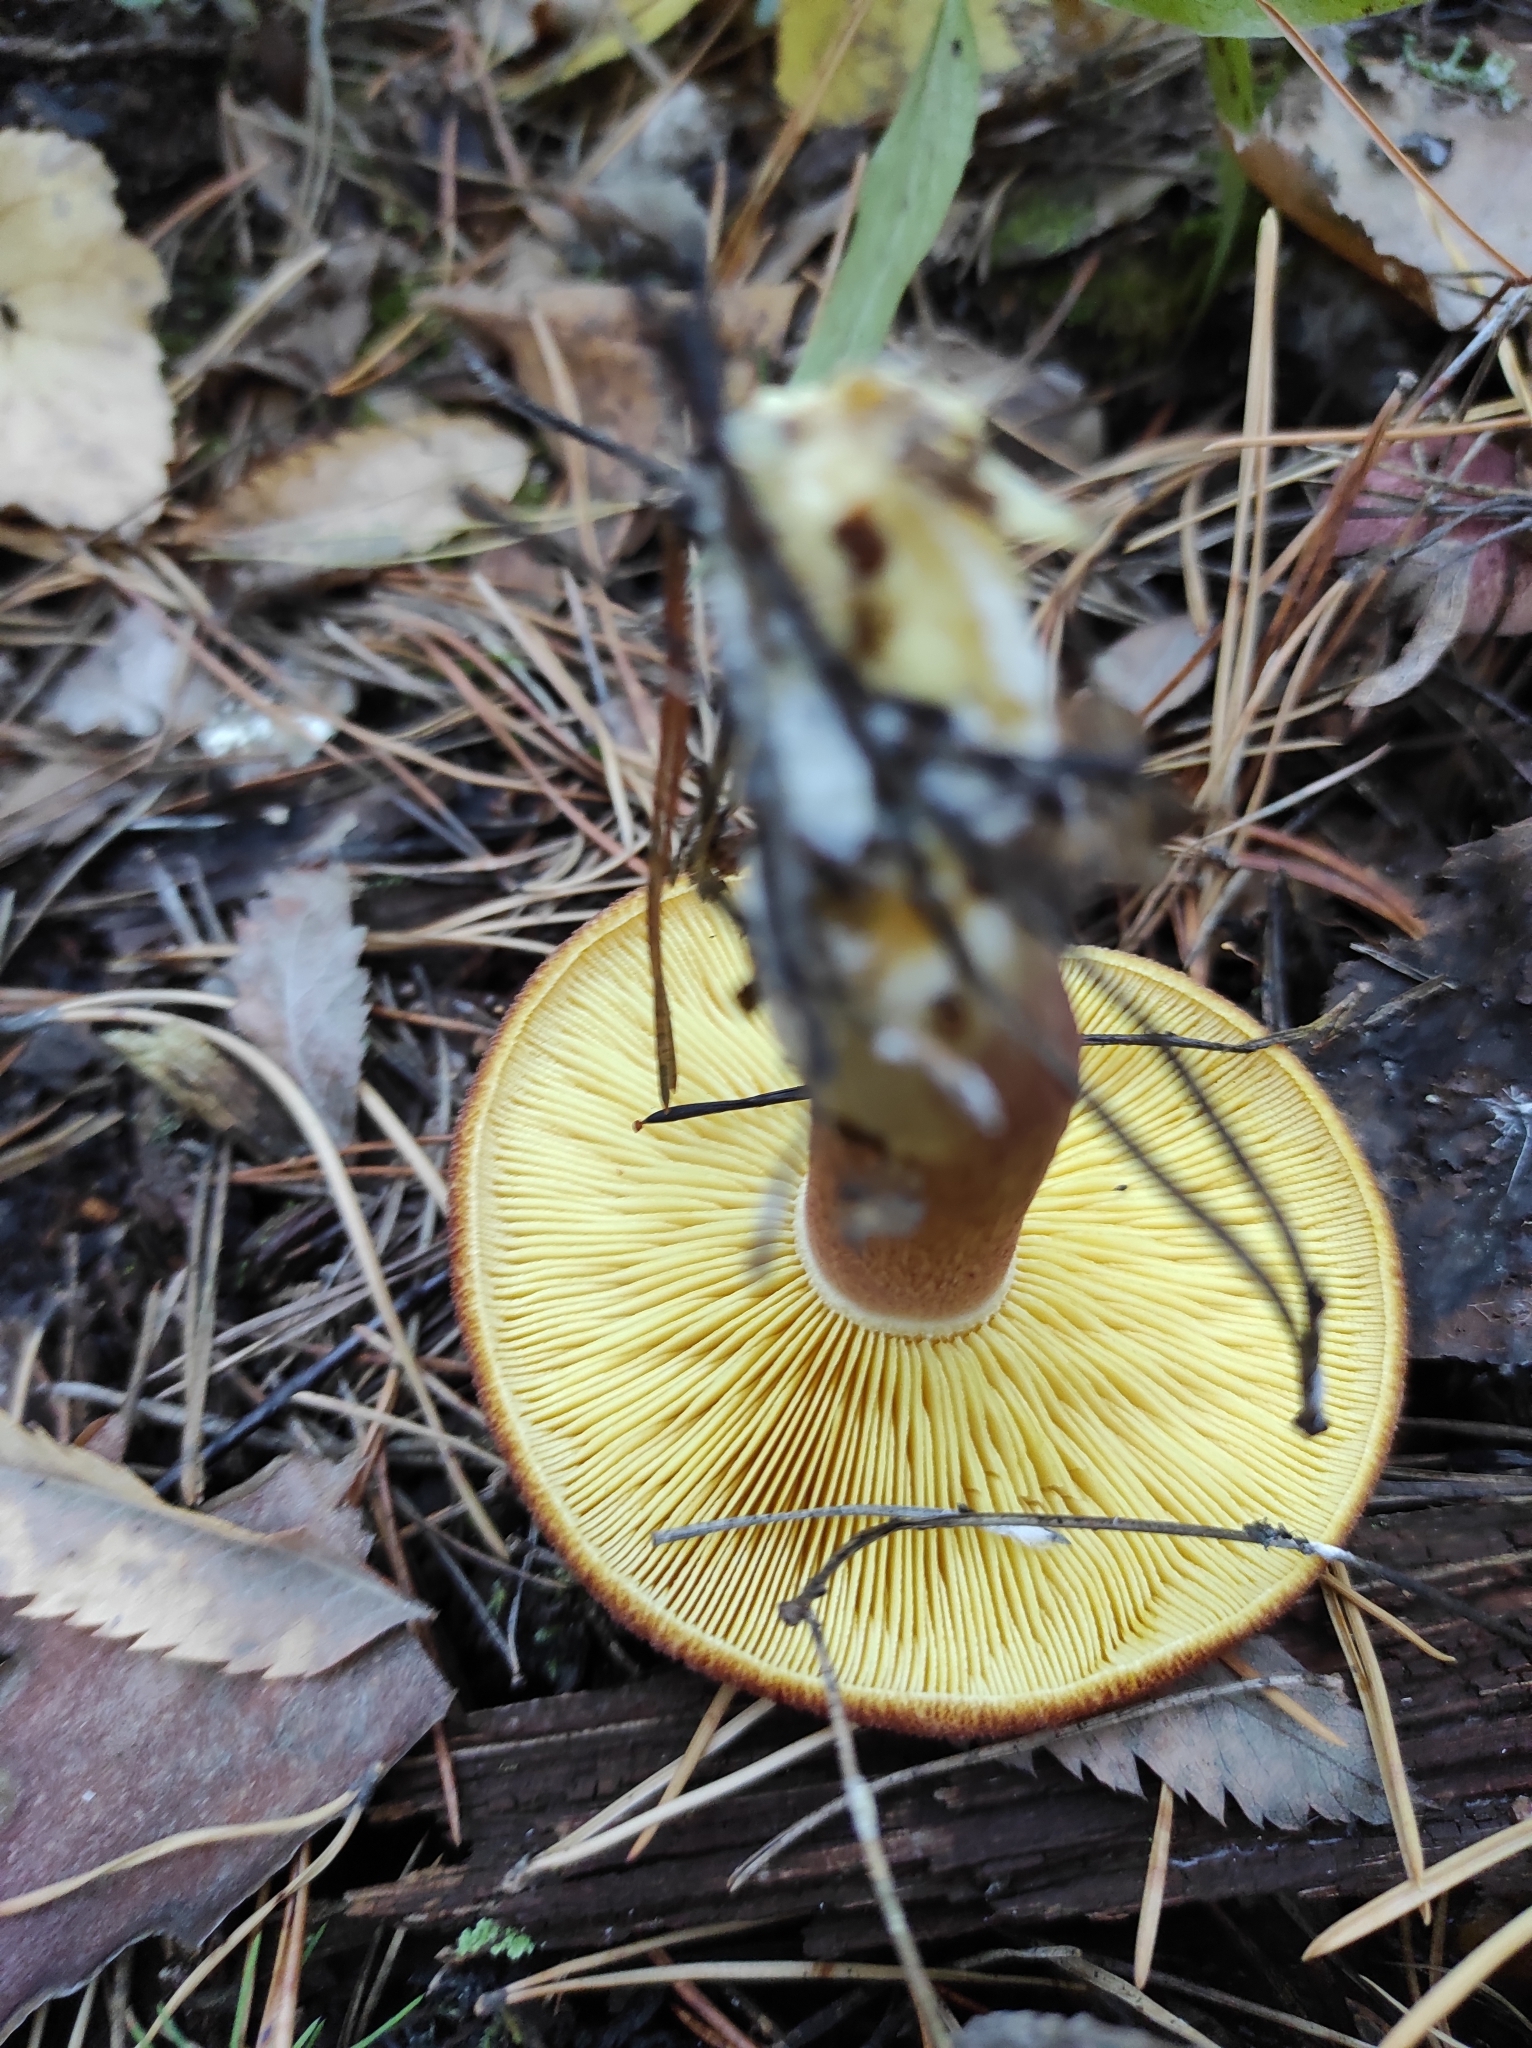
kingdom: Fungi
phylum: Basidiomycota
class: Agaricomycetes
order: Agaricales
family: Tricholomataceae
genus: Tricholomopsis
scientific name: Tricholomopsis rutilans
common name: Plums and custard
